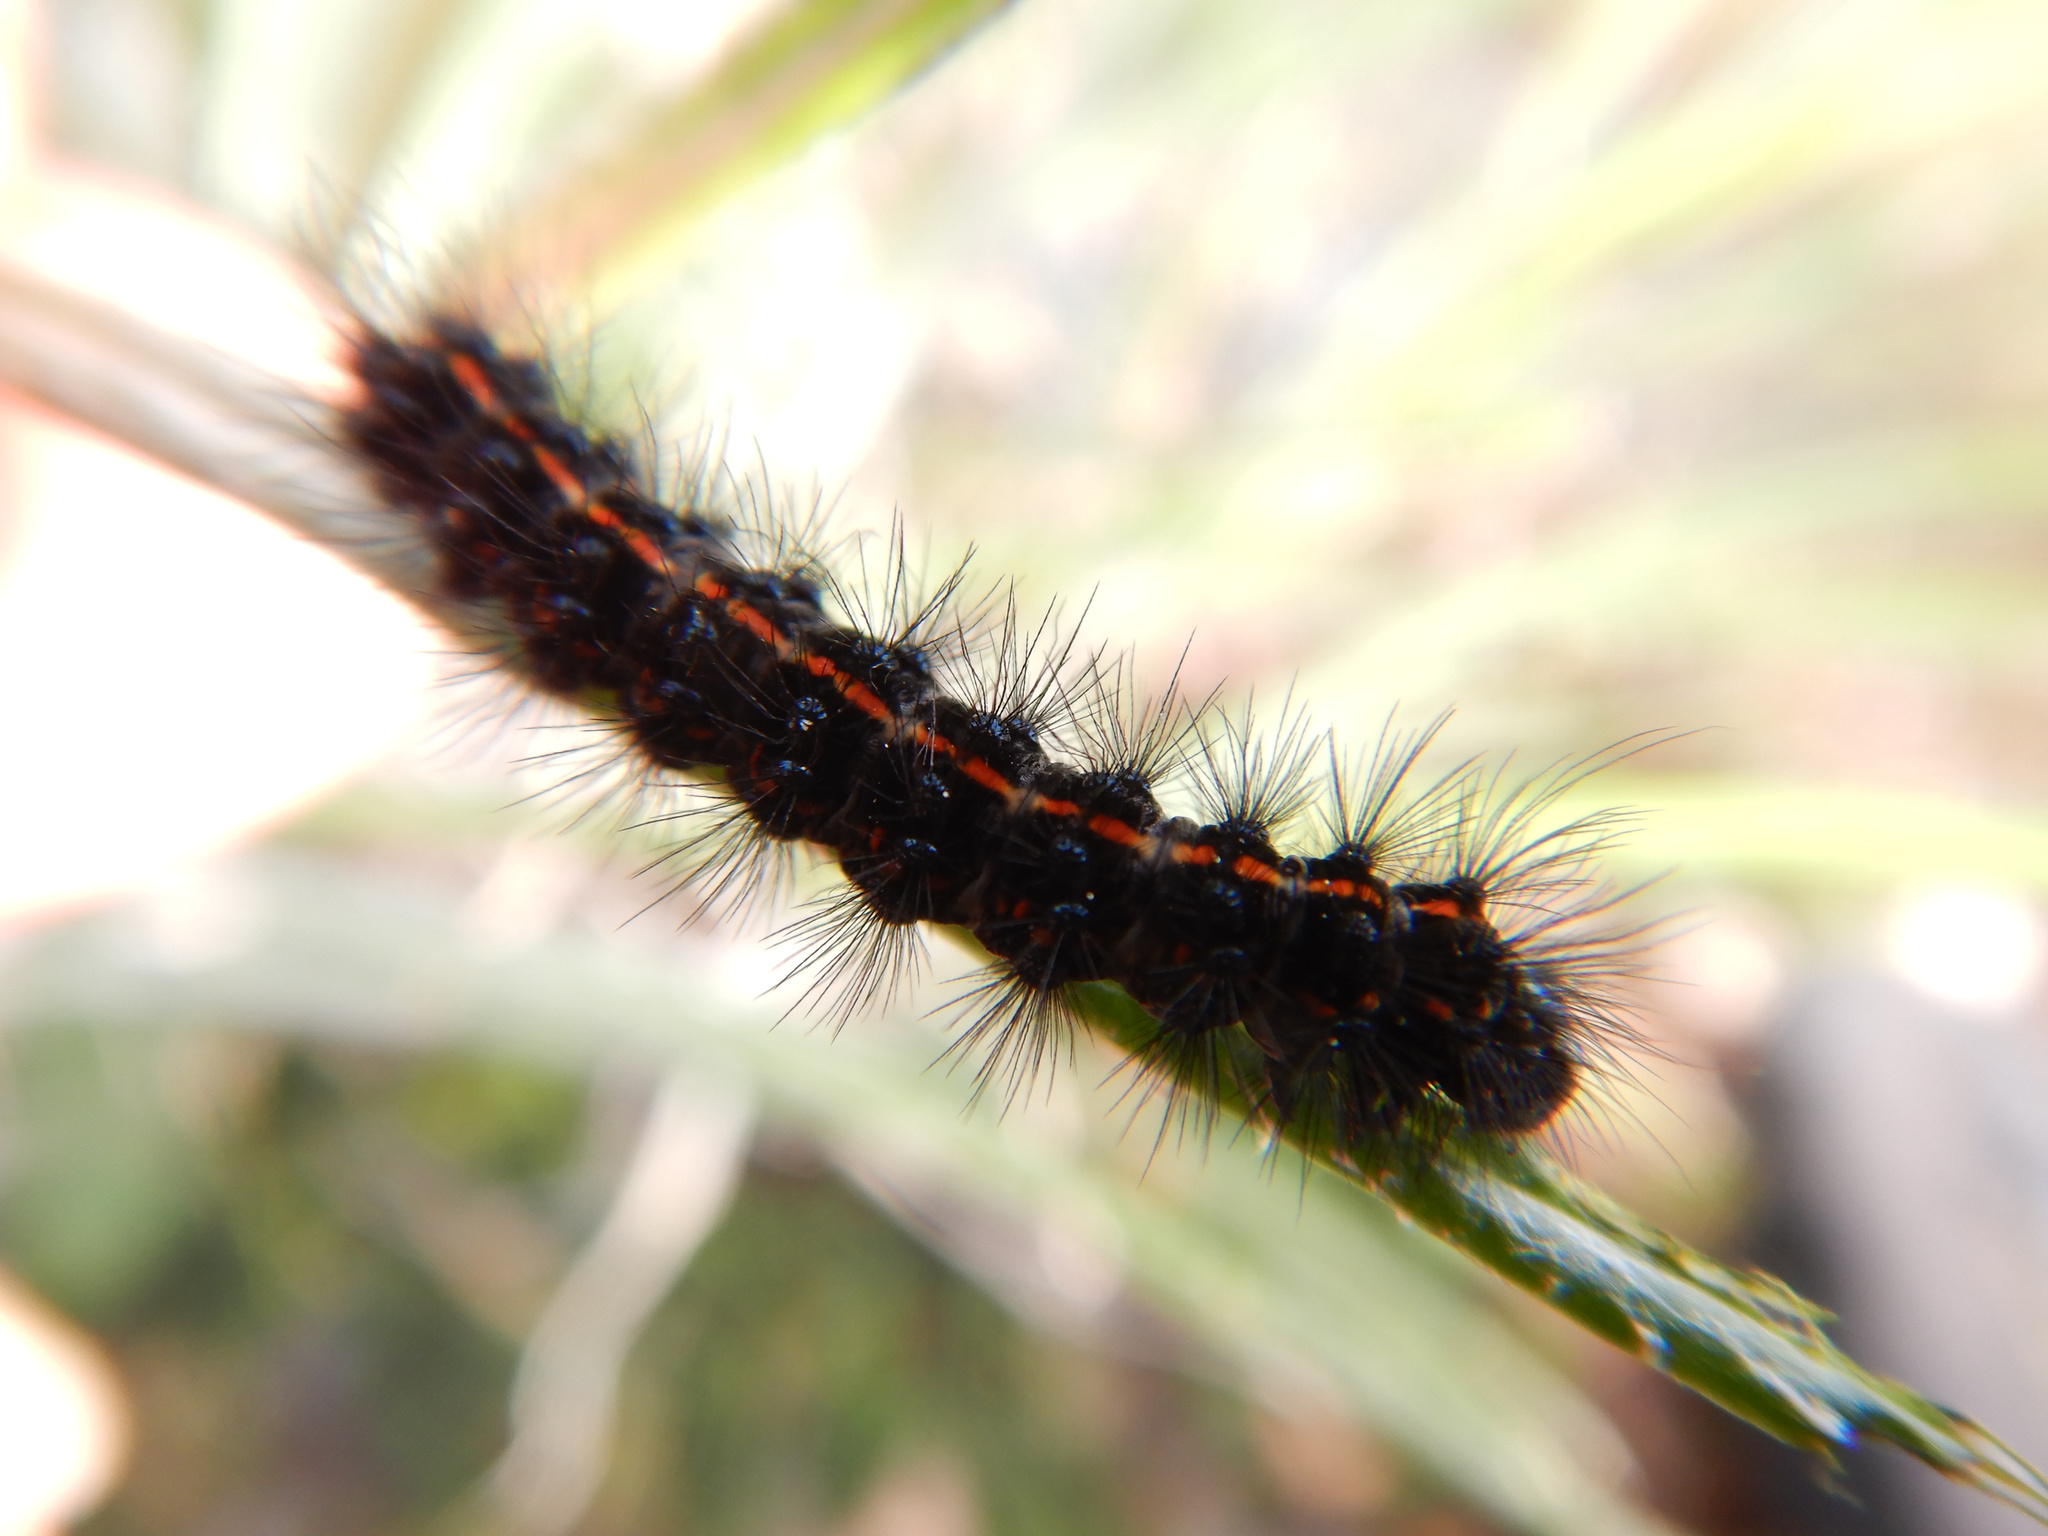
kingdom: Animalia
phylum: Arthropoda
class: Insecta
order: Lepidoptera
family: Erebidae
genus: Nyctemera
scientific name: Nyctemera annulatum
